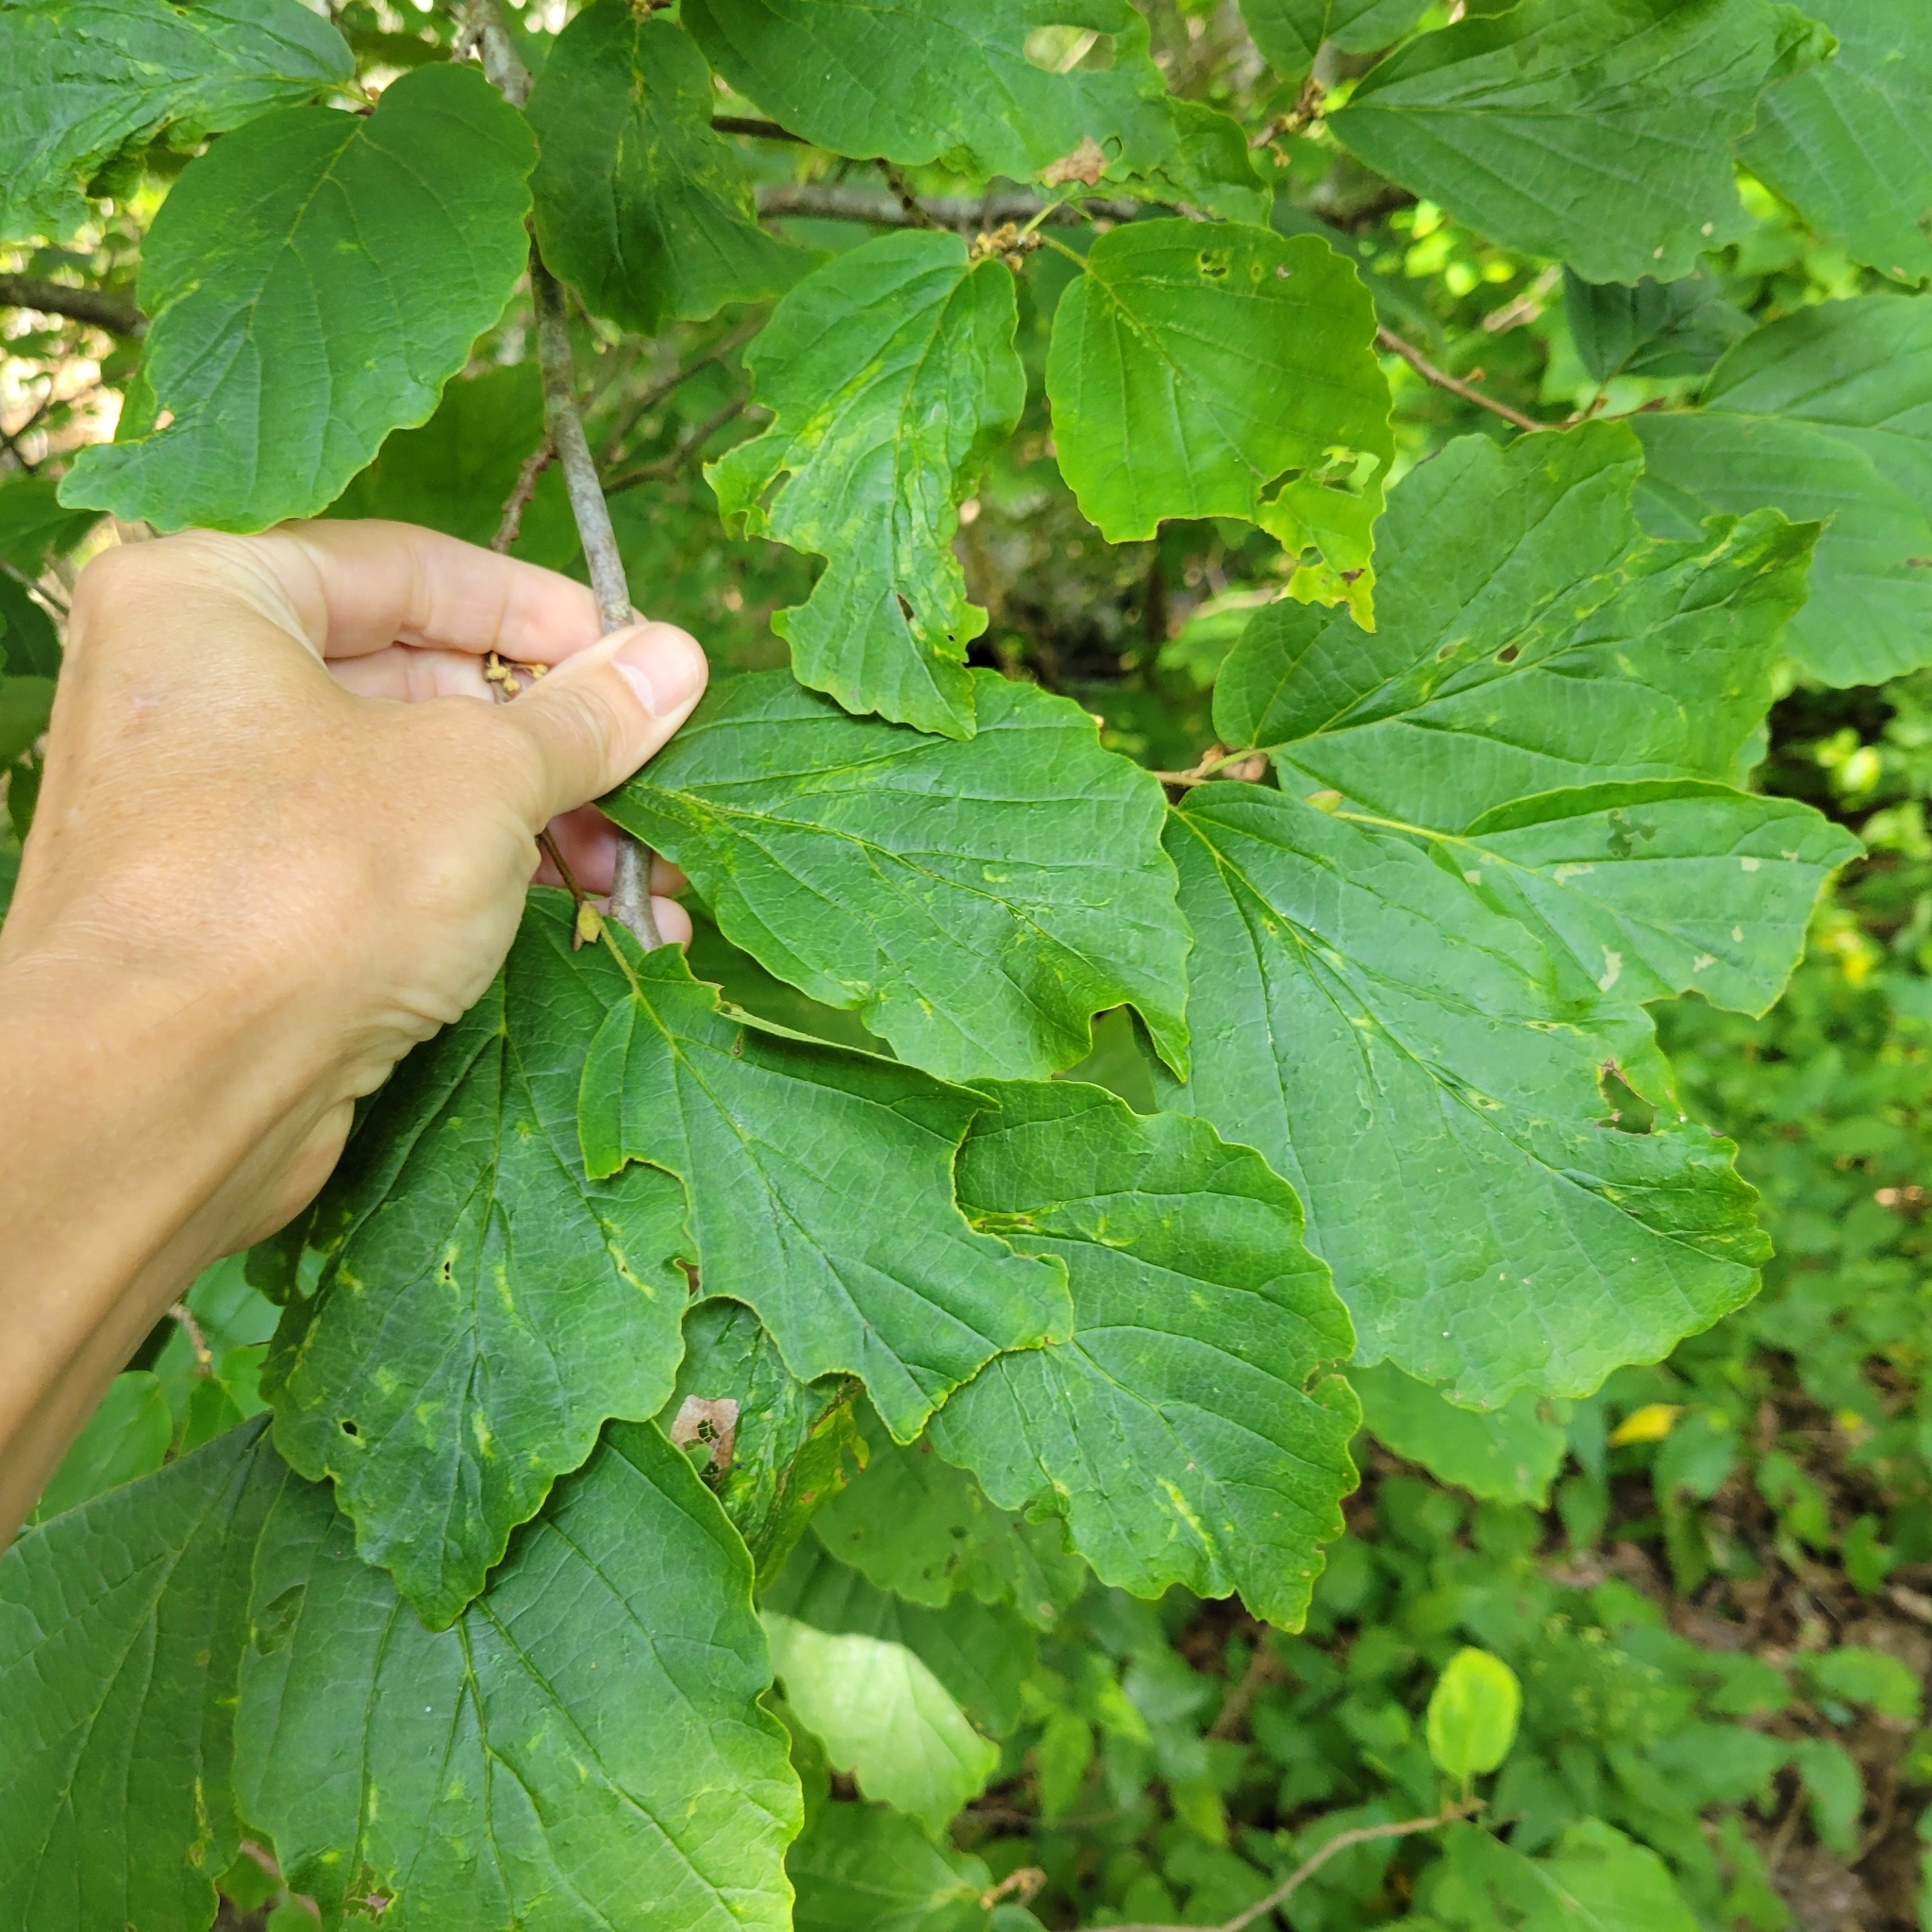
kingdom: Plantae
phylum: Tracheophyta
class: Magnoliopsida
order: Saxifragales
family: Hamamelidaceae
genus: Hamamelis
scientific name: Hamamelis virginiana
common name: Witch-hazel
